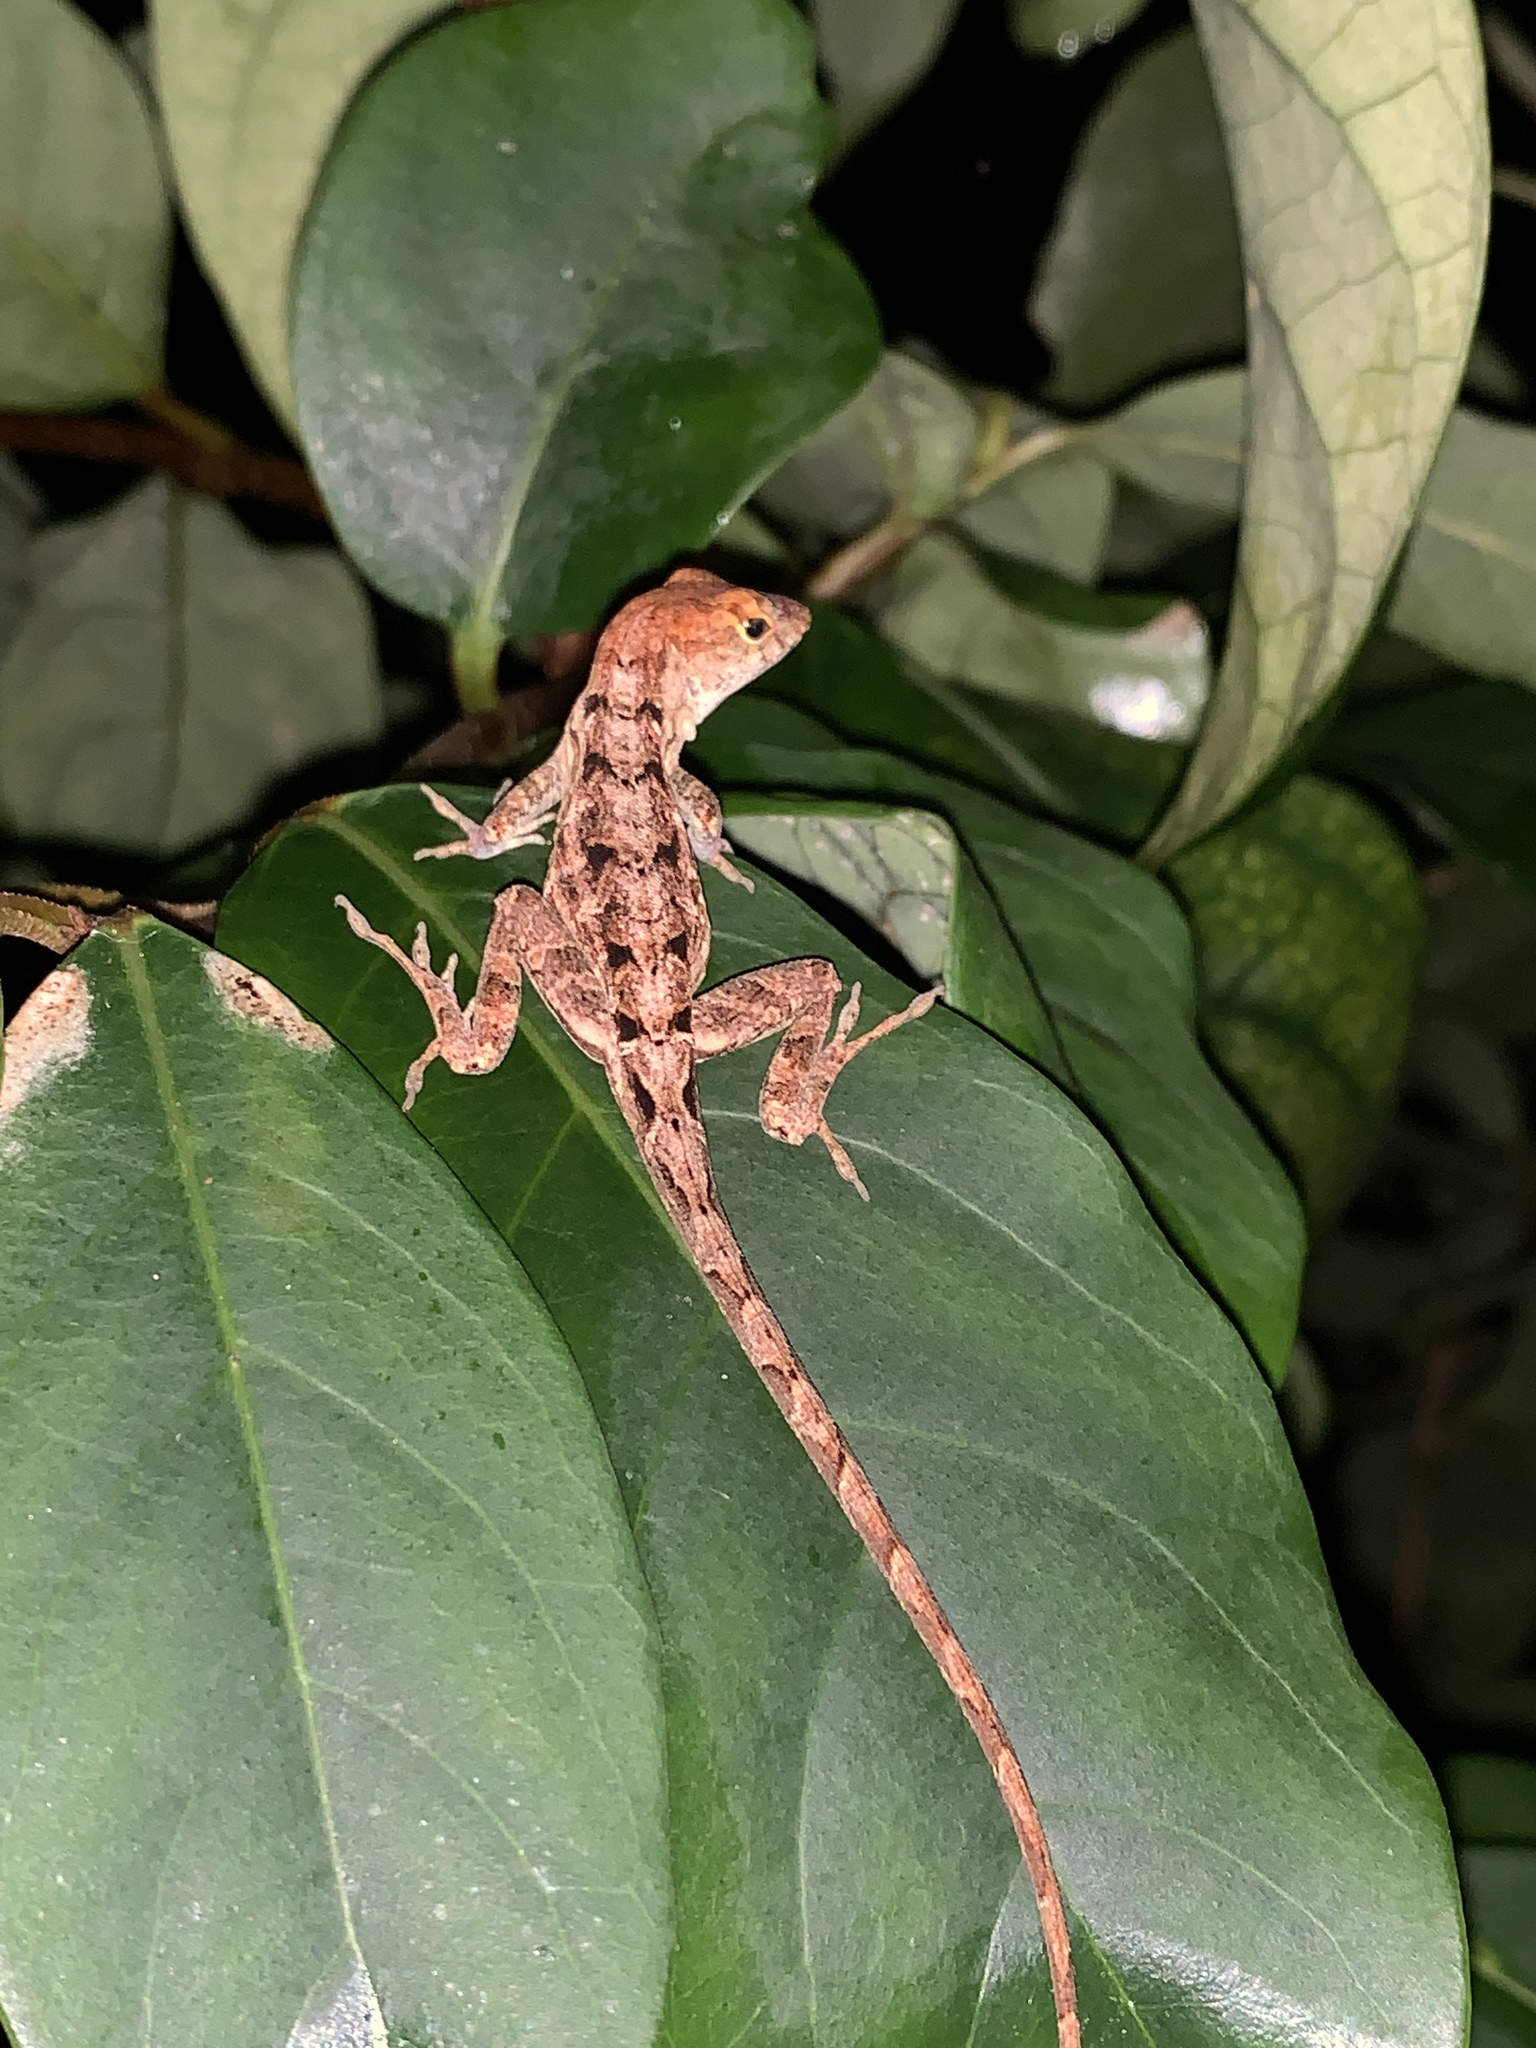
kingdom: Animalia
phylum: Chordata
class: Squamata
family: Dactyloidae
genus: Anolis
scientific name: Anolis sagrei
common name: Brown anole
